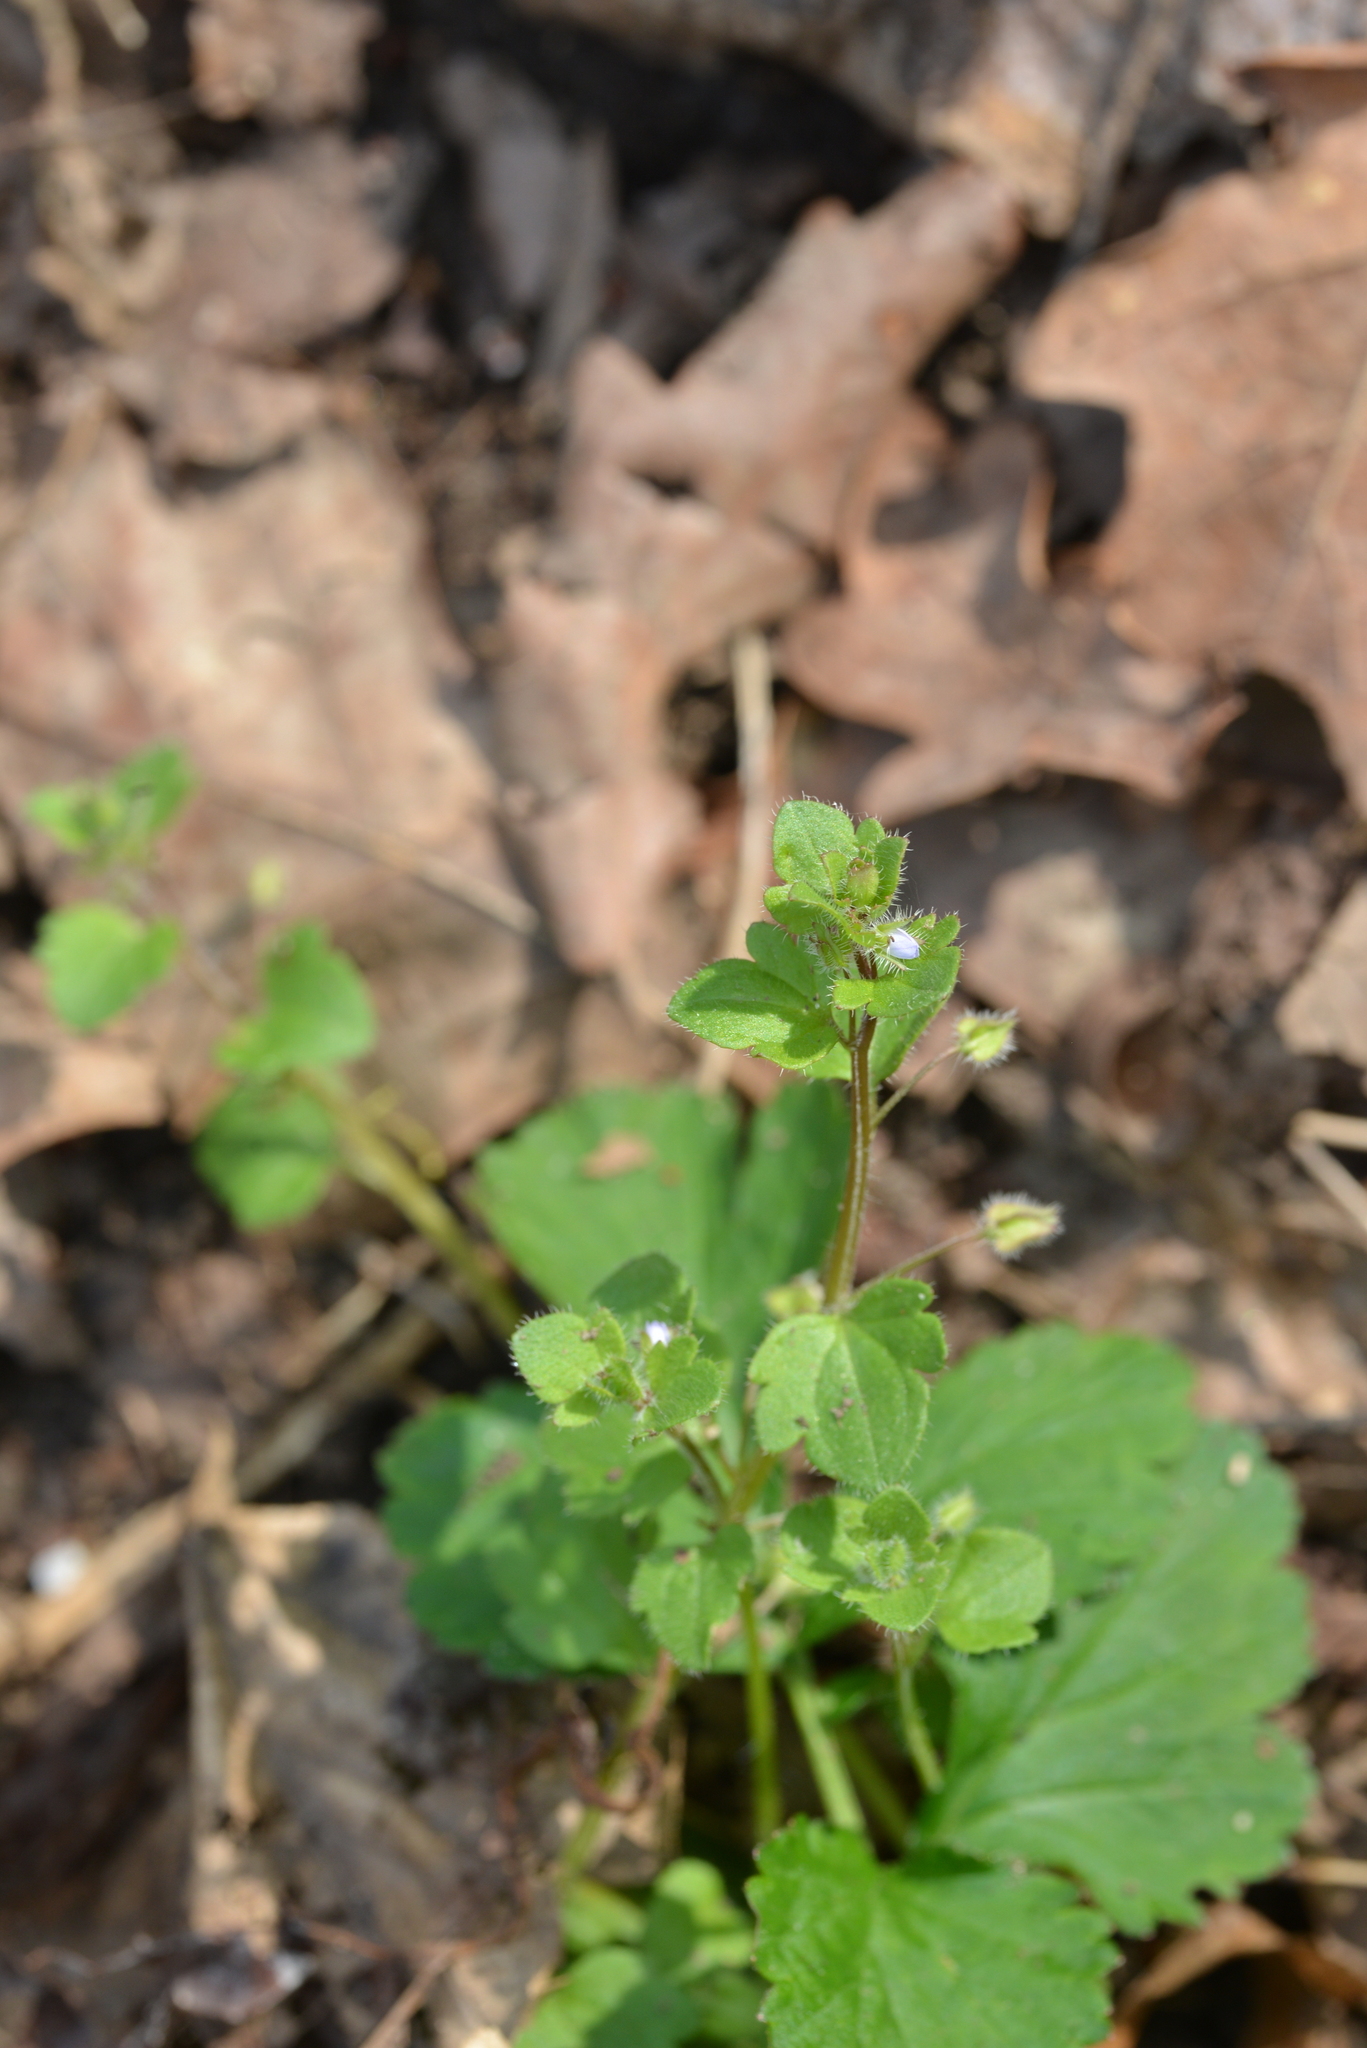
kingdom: Plantae
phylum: Tracheophyta
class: Magnoliopsida
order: Lamiales
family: Plantaginaceae
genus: Veronica
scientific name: Veronica sublobata
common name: False ivy-leaved speedwell
